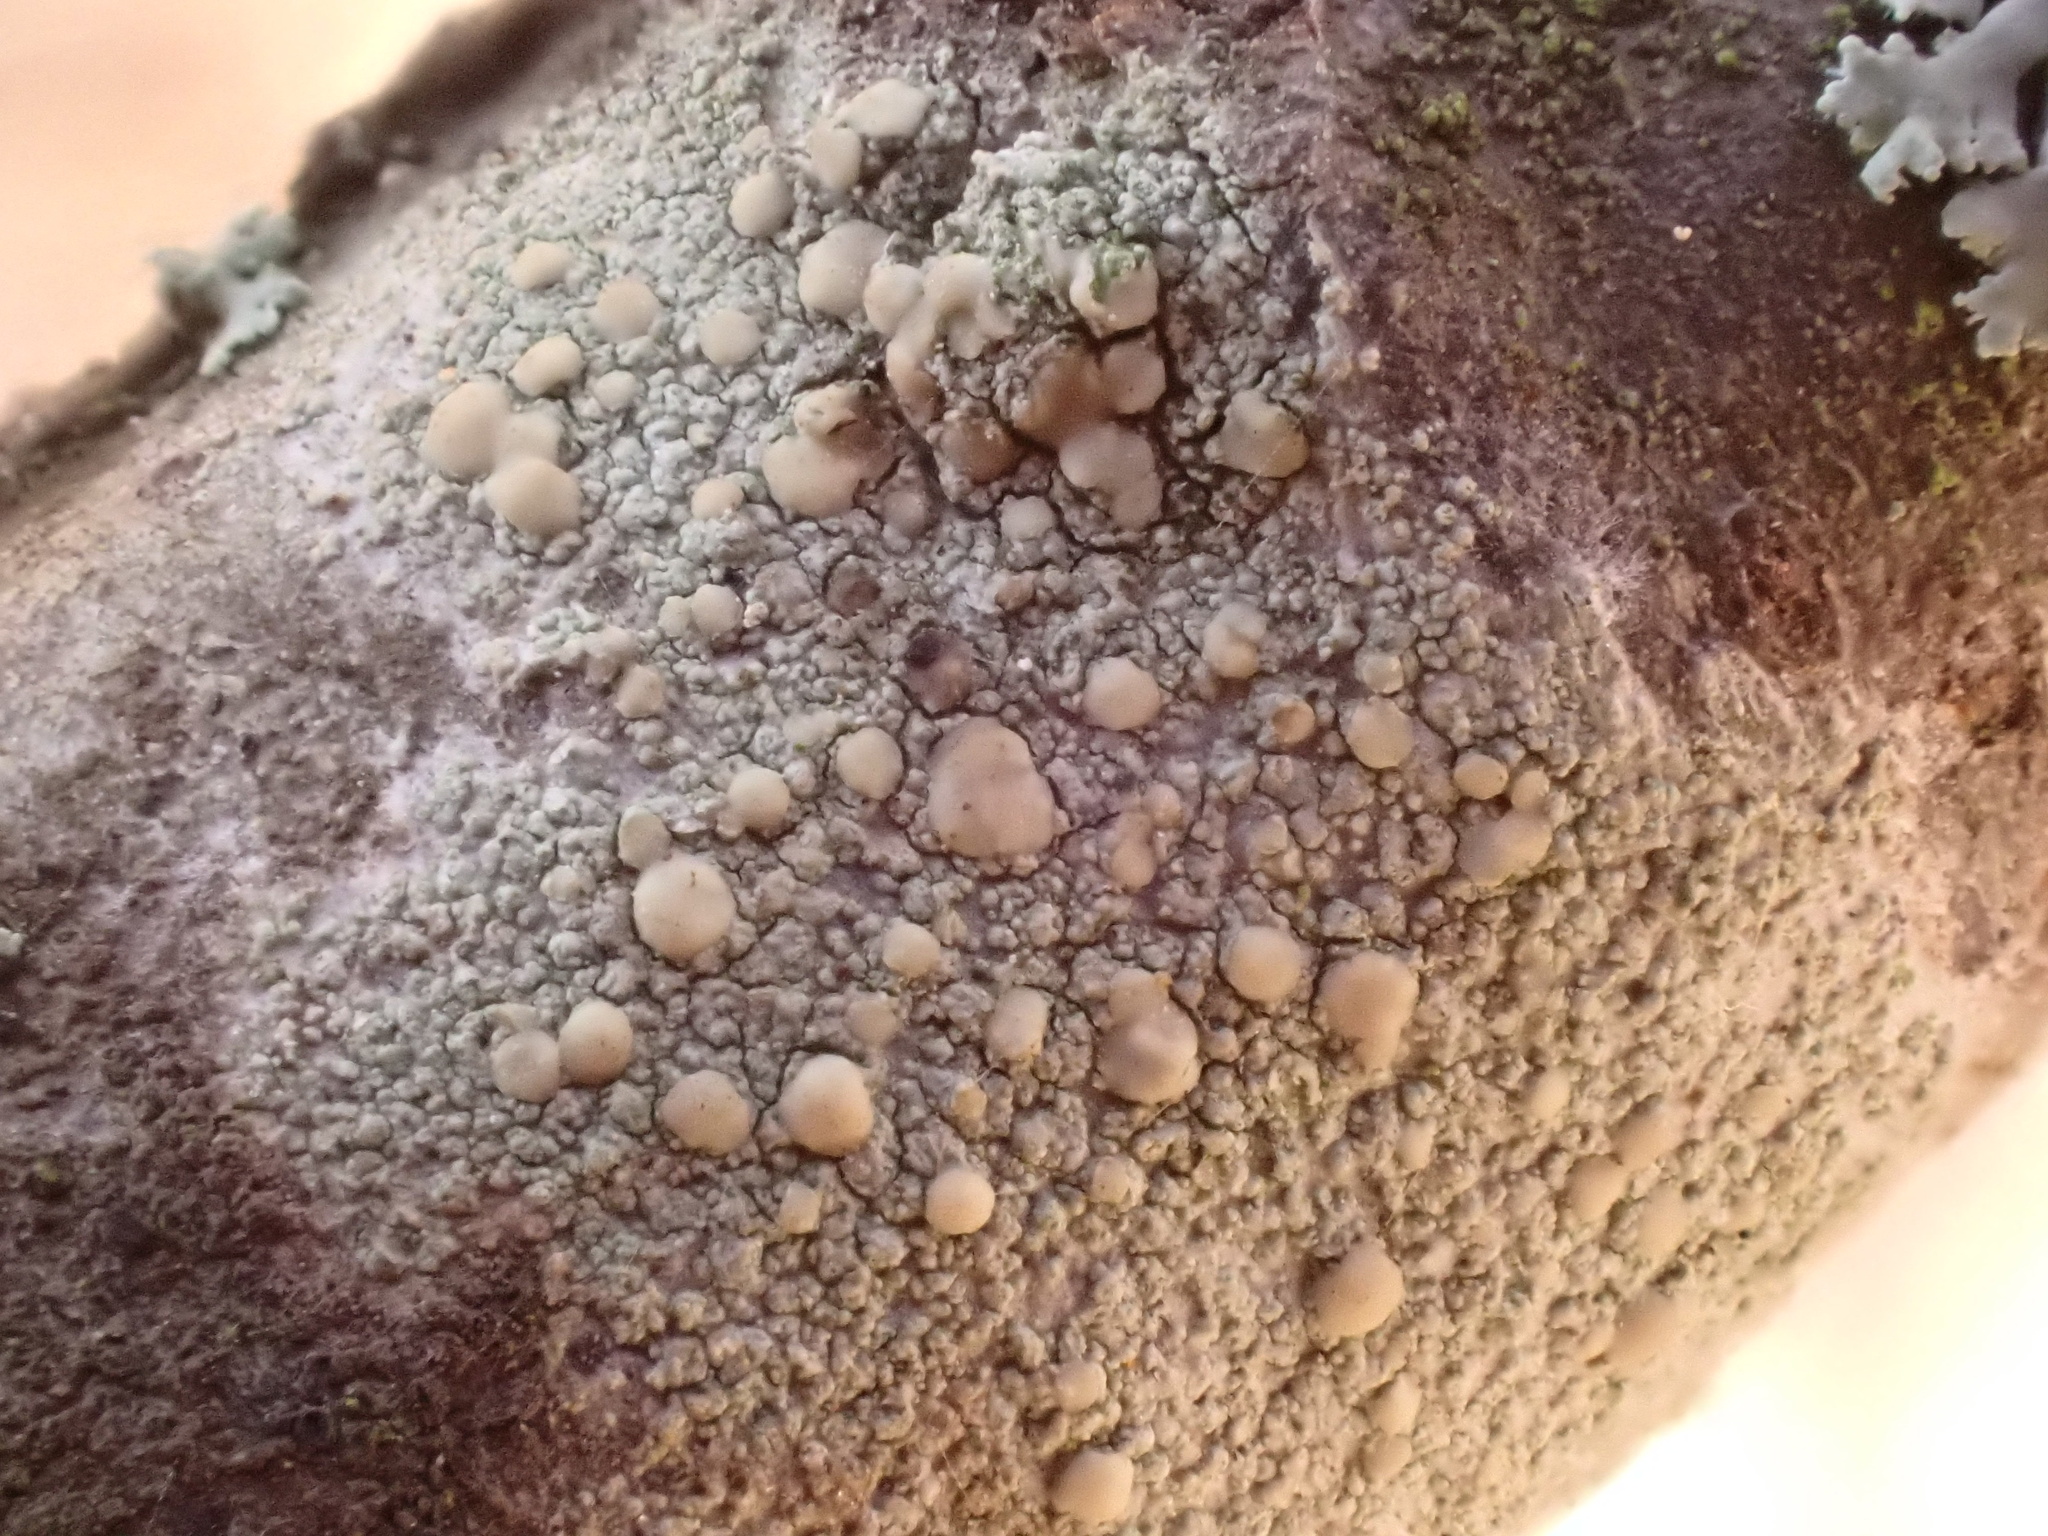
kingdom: Fungi
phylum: Ascomycota
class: Lecanoromycetes
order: Lecanorales
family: Lecanoraceae
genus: Lecanora
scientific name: Lecanora symmicta
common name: Fused rim lichen
